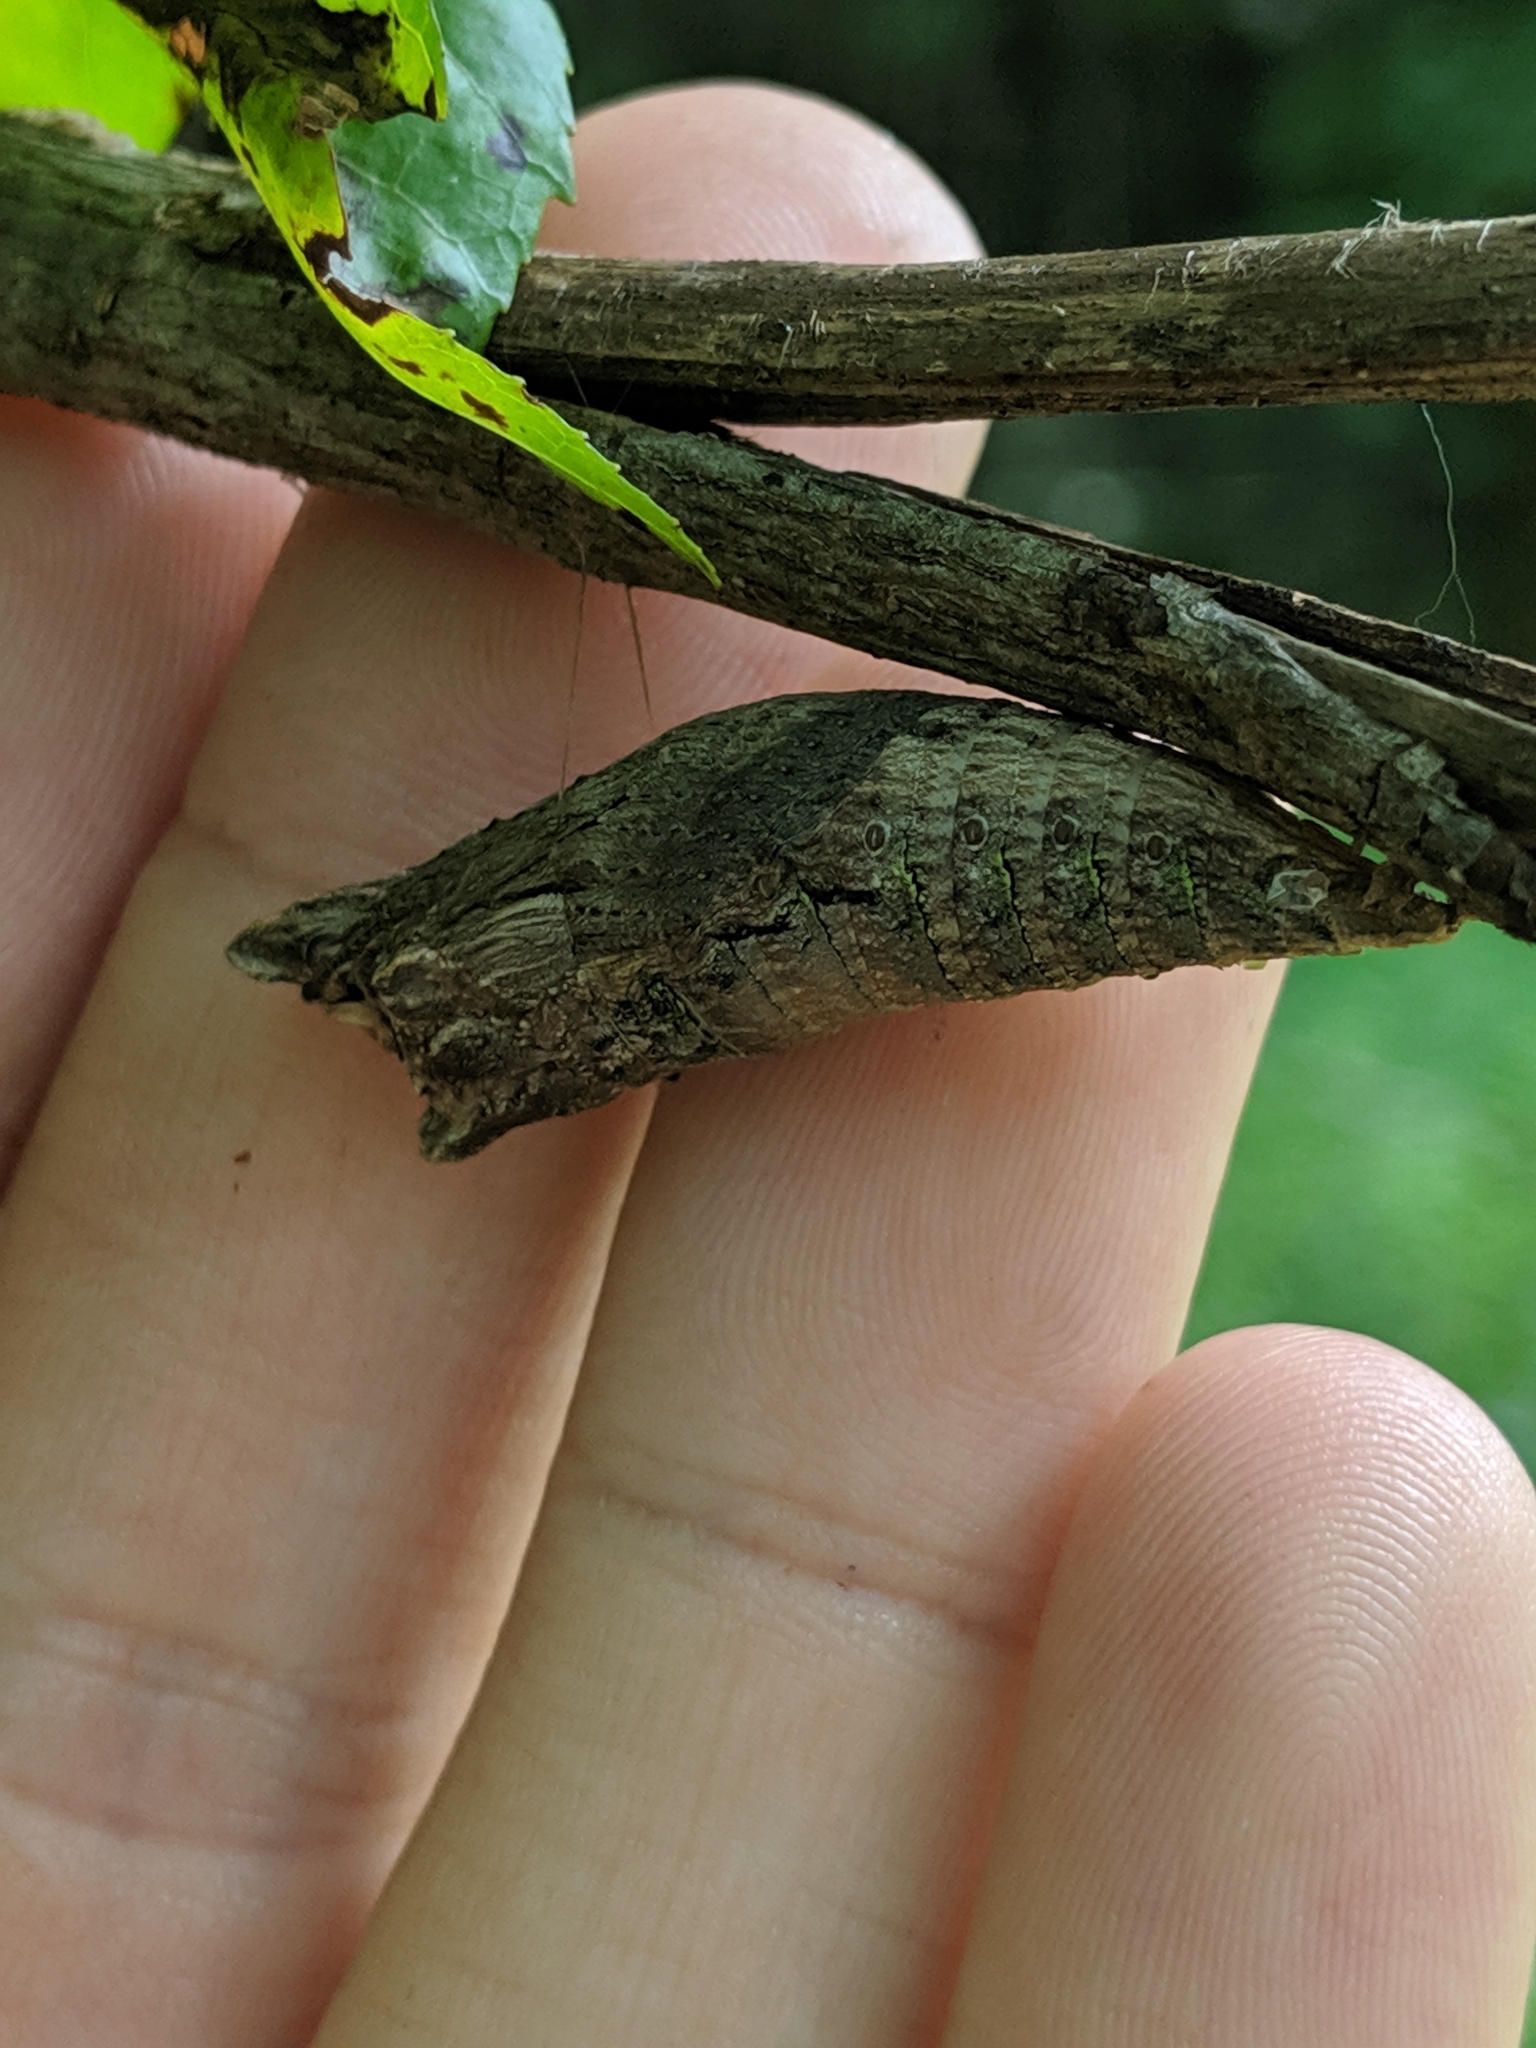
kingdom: Animalia
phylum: Arthropoda
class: Insecta
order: Lepidoptera
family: Papilionidae
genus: Papilio
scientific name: Papilio glaucus
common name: Tiger swallowtail
